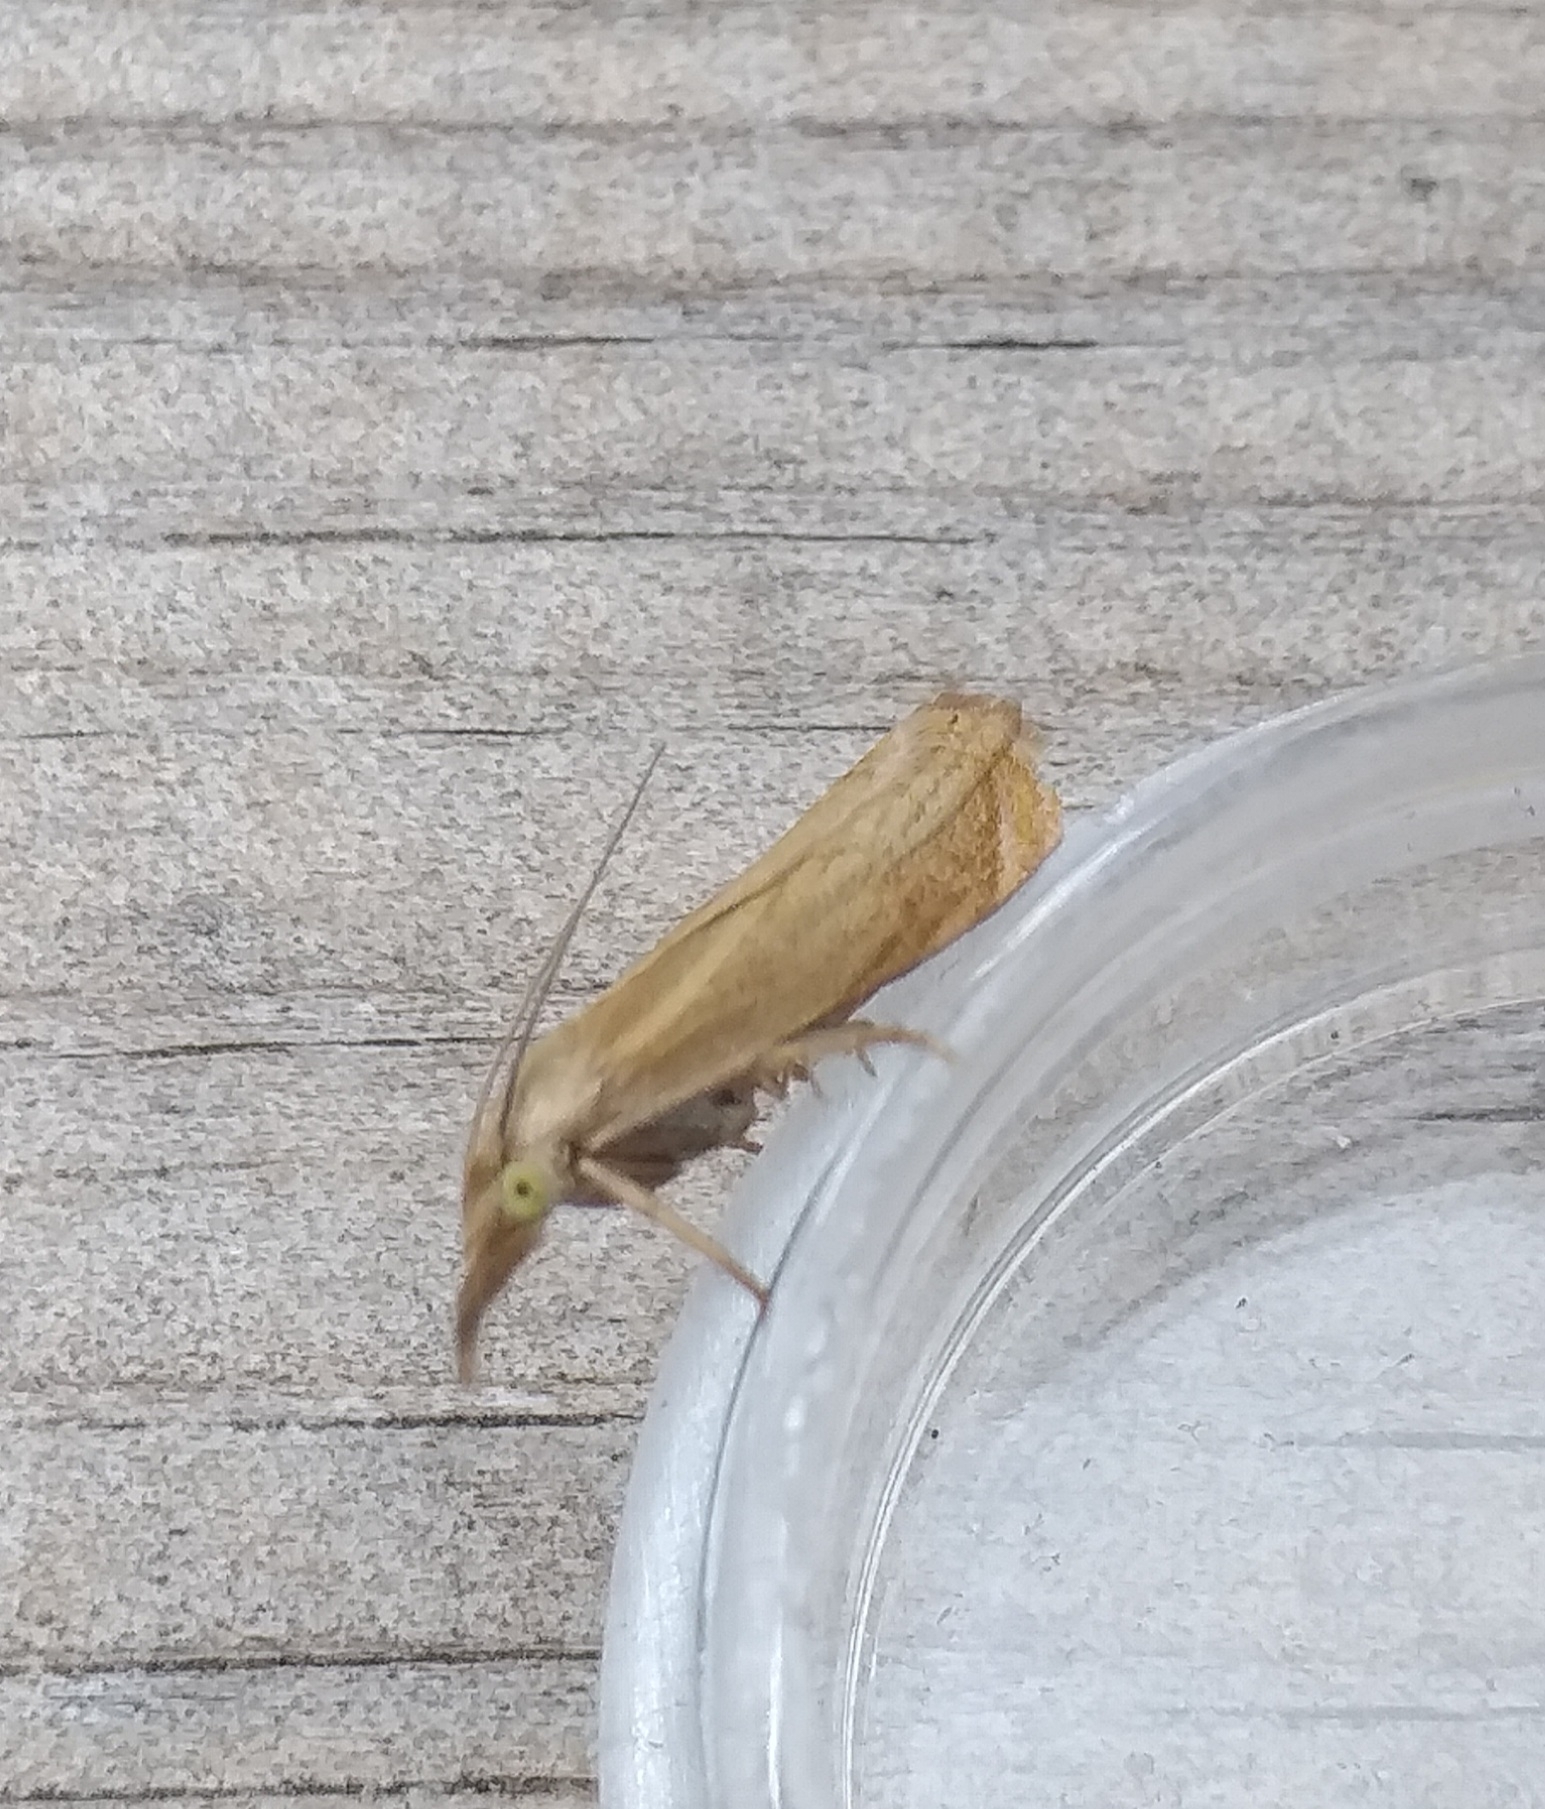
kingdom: Animalia
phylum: Arthropoda
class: Insecta
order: Lepidoptera
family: Crambidae
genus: Chrysoteuchia
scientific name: Chrysoteuchia culmella
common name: Garden grass-veneer
